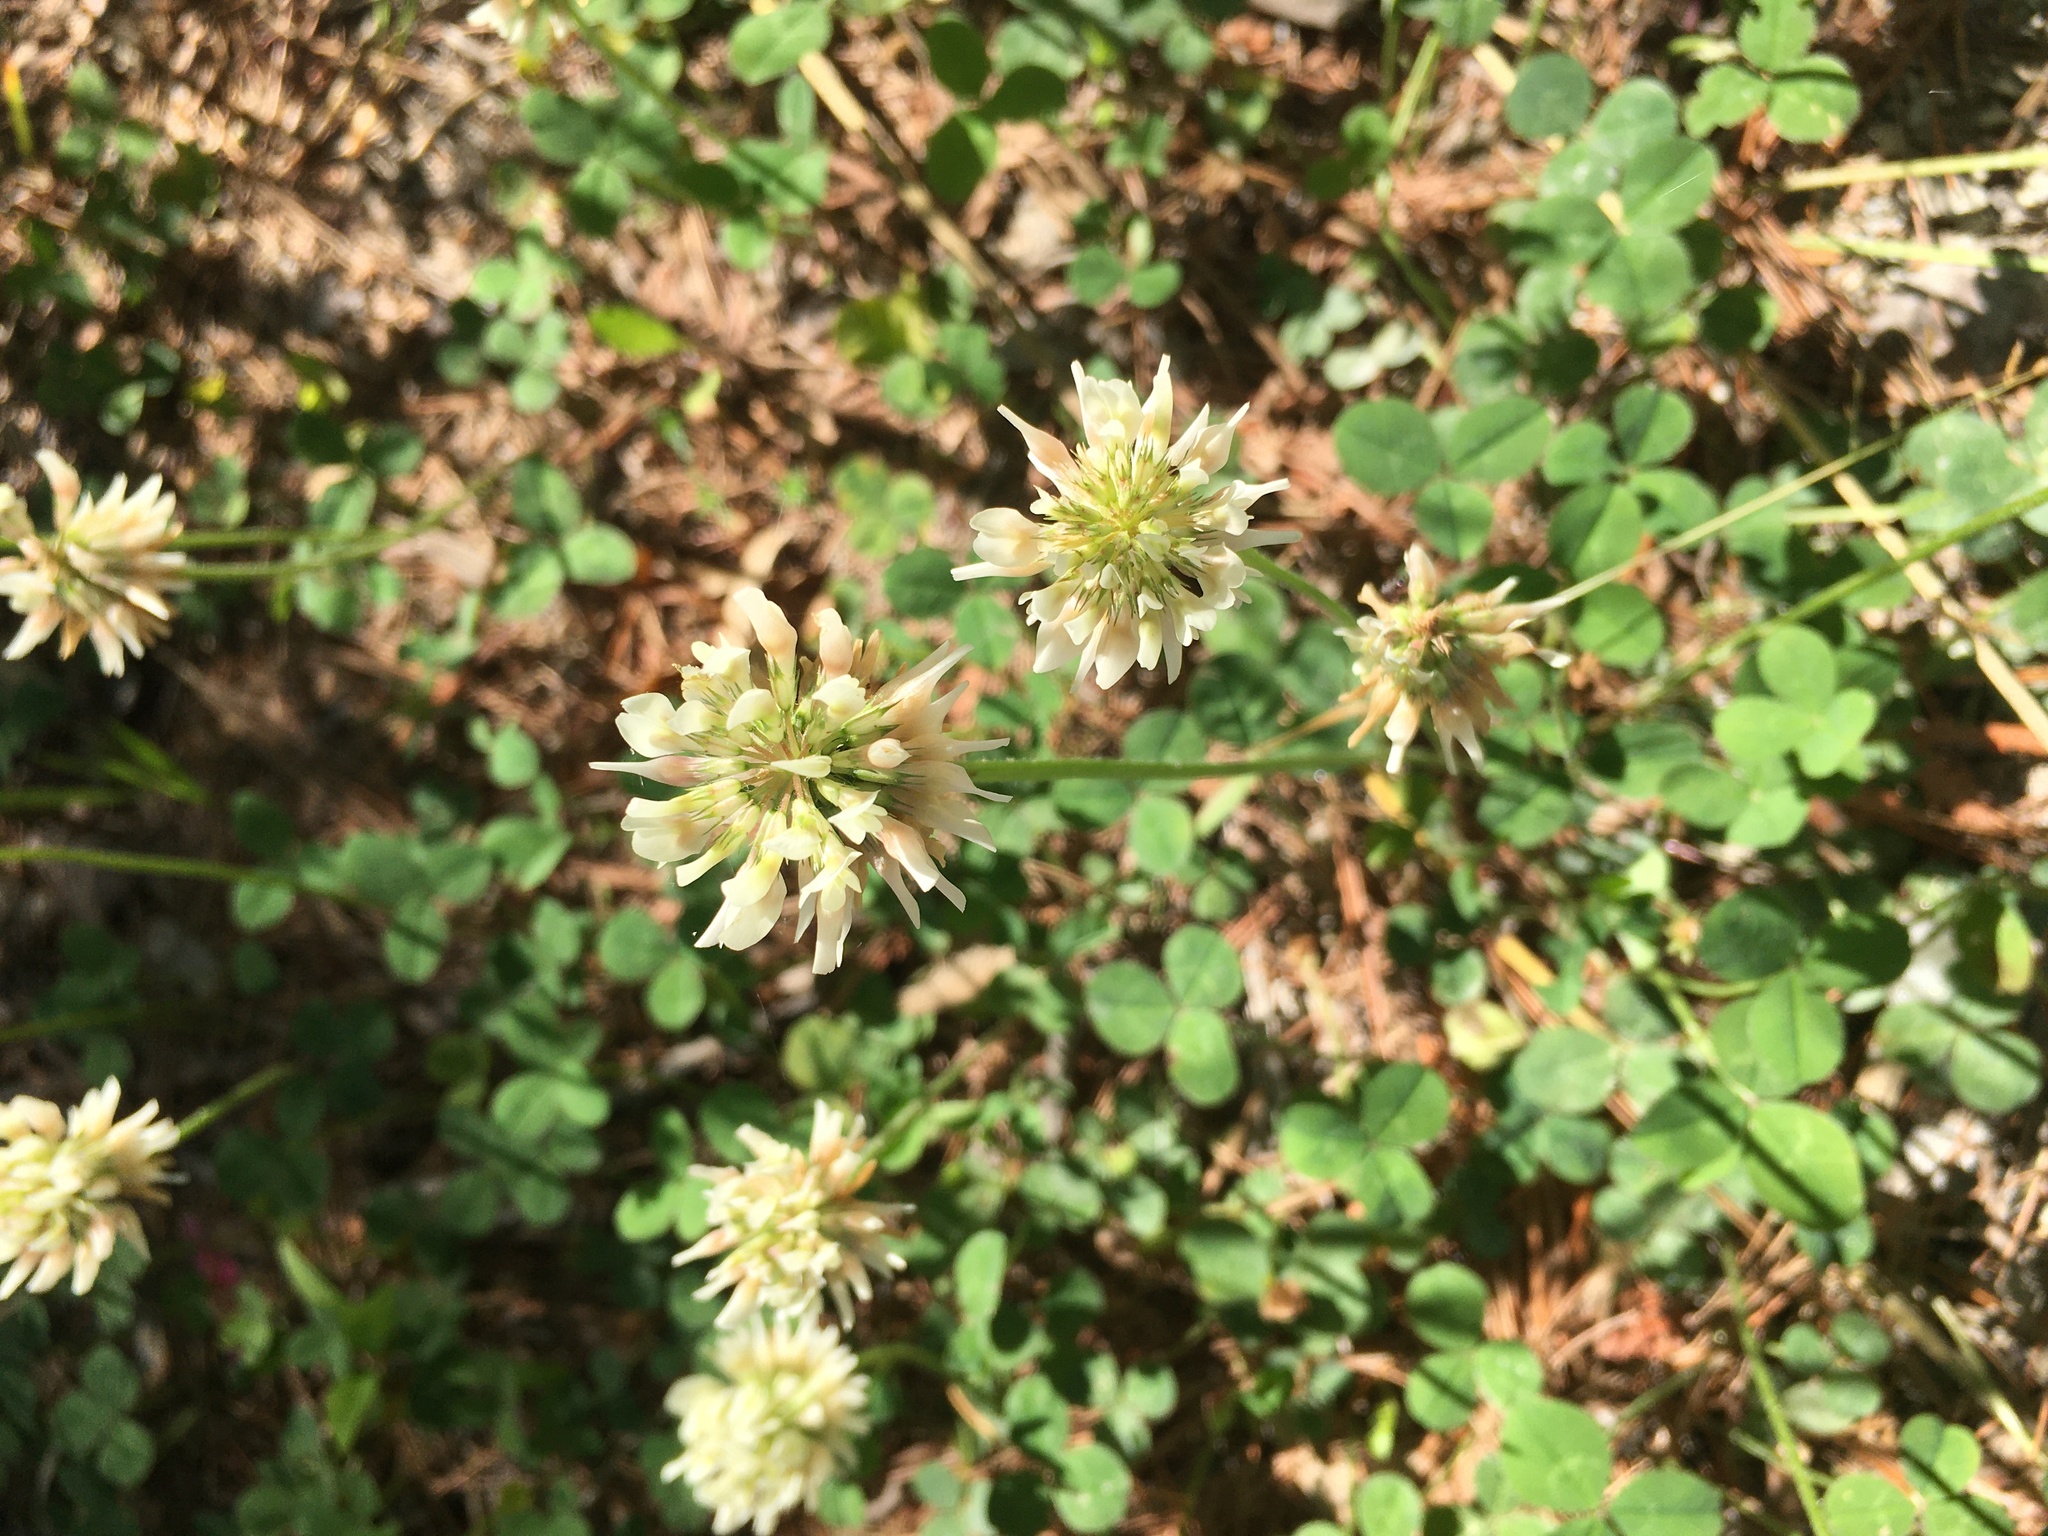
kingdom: Plantae
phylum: Tracheophyta
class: Magnoliopsida
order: Fabales
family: Fabaceae
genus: Trifolium
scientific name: Trifolium repens
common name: White clover
